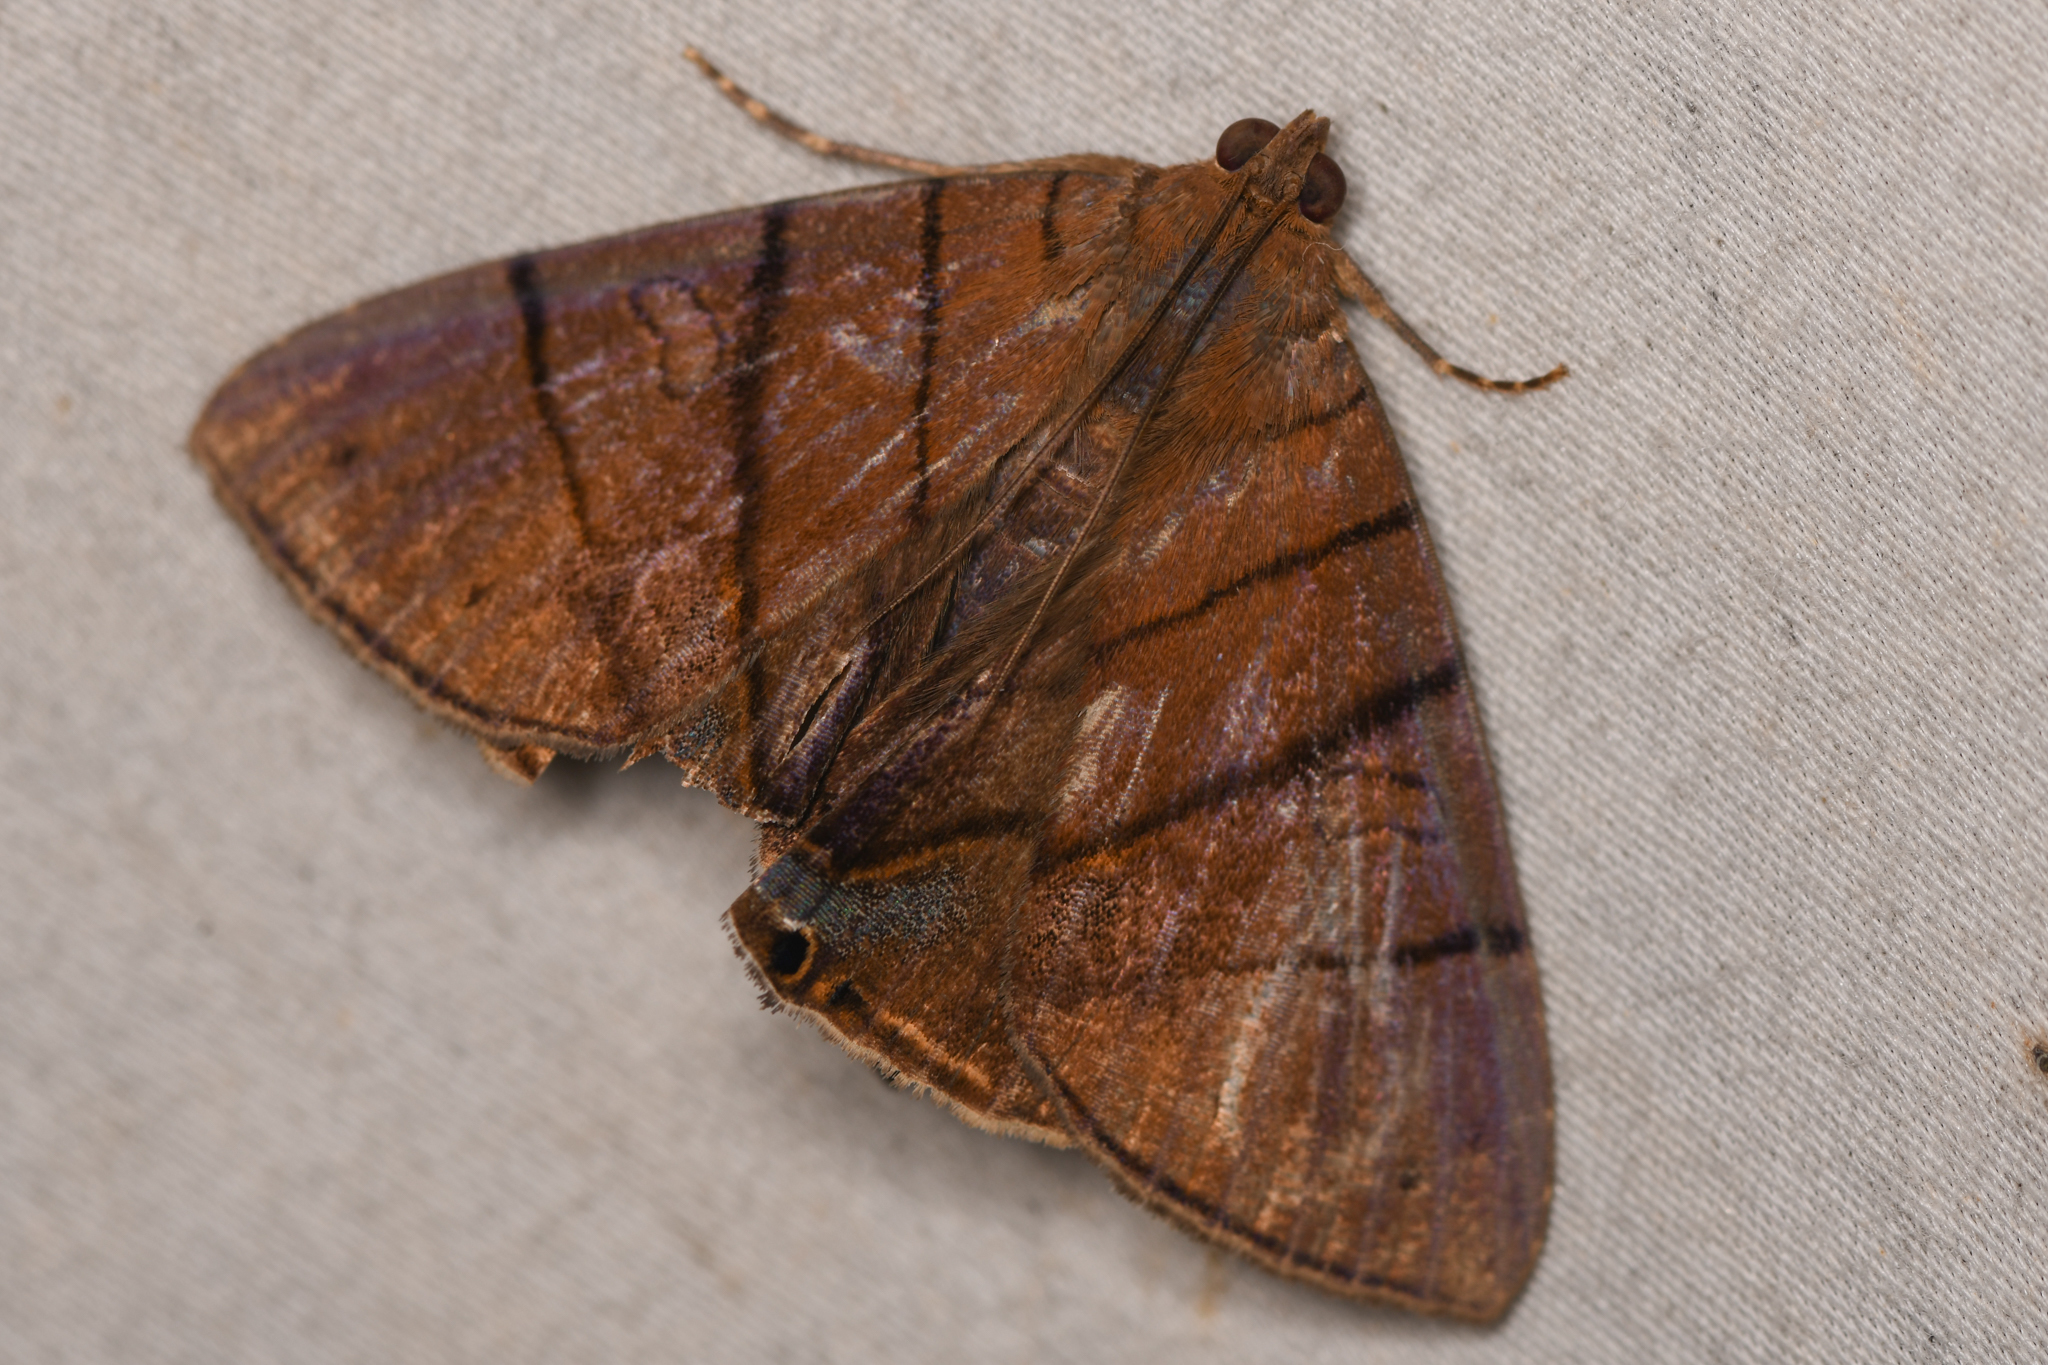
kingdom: Animalia
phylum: Arthropoda
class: Insecta
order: Lepidoptera
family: Erebidae
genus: Dyomyx
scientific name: Dyomyx inferior
